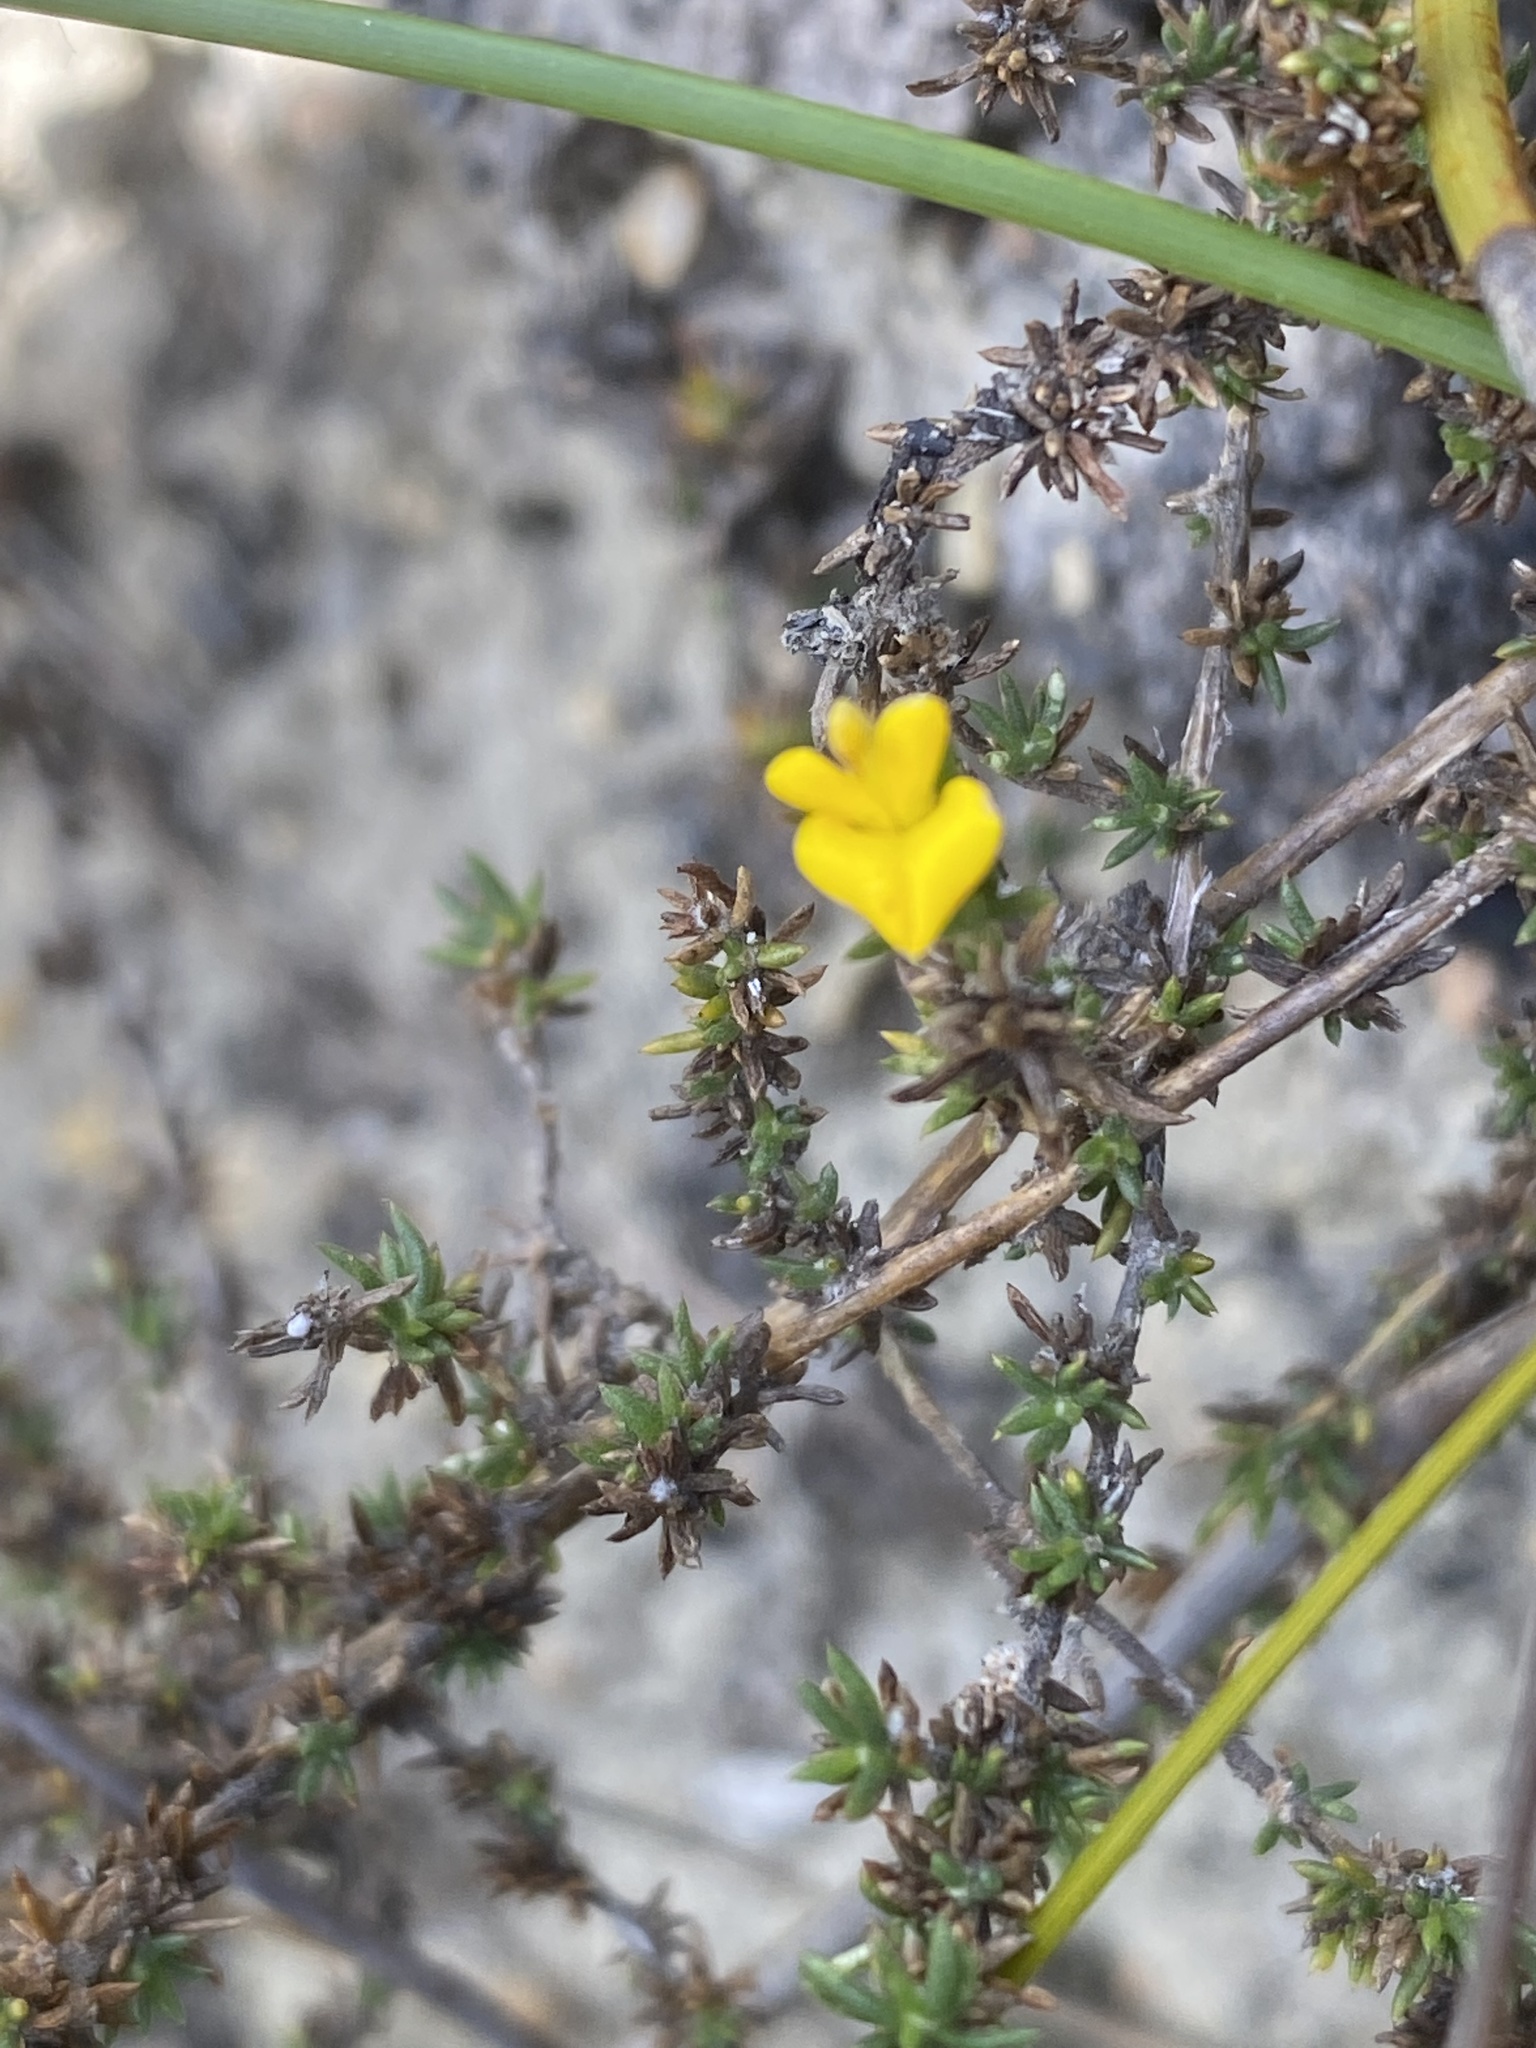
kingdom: Plantae
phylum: Tracheophyta
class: Magnoliopsida
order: Fabales
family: Fabaceae
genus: Aspalathus
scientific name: Aspalathus cordicarpa
